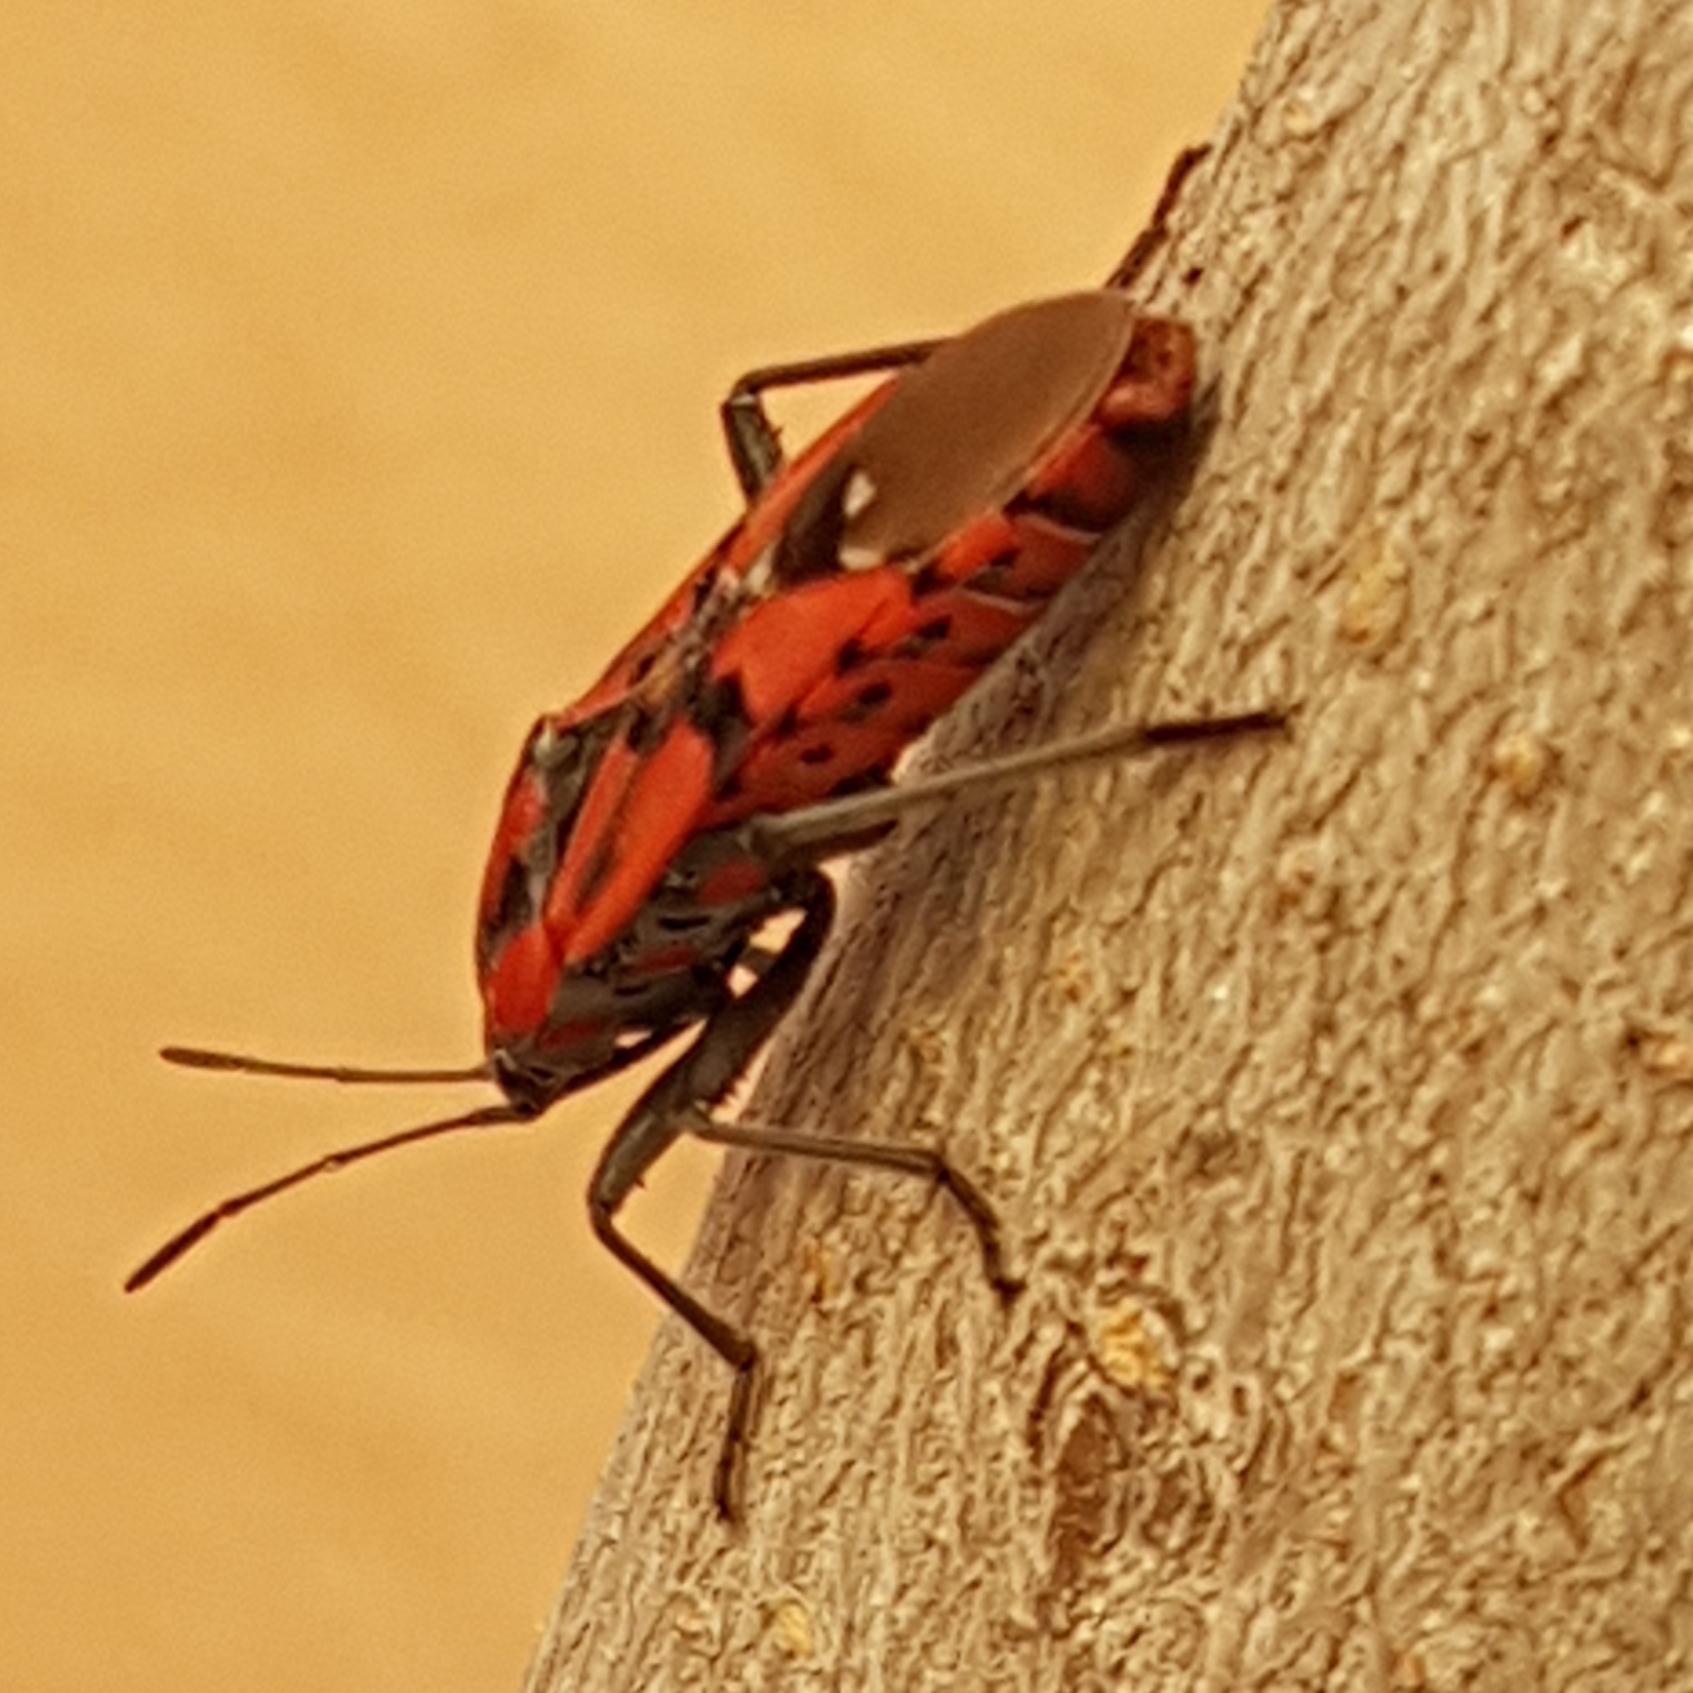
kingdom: Animalia
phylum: Arthropoda
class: Insecta
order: Hemiptera
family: Lygaeidae
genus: Spilostethus
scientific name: Spilostethus pandurus
